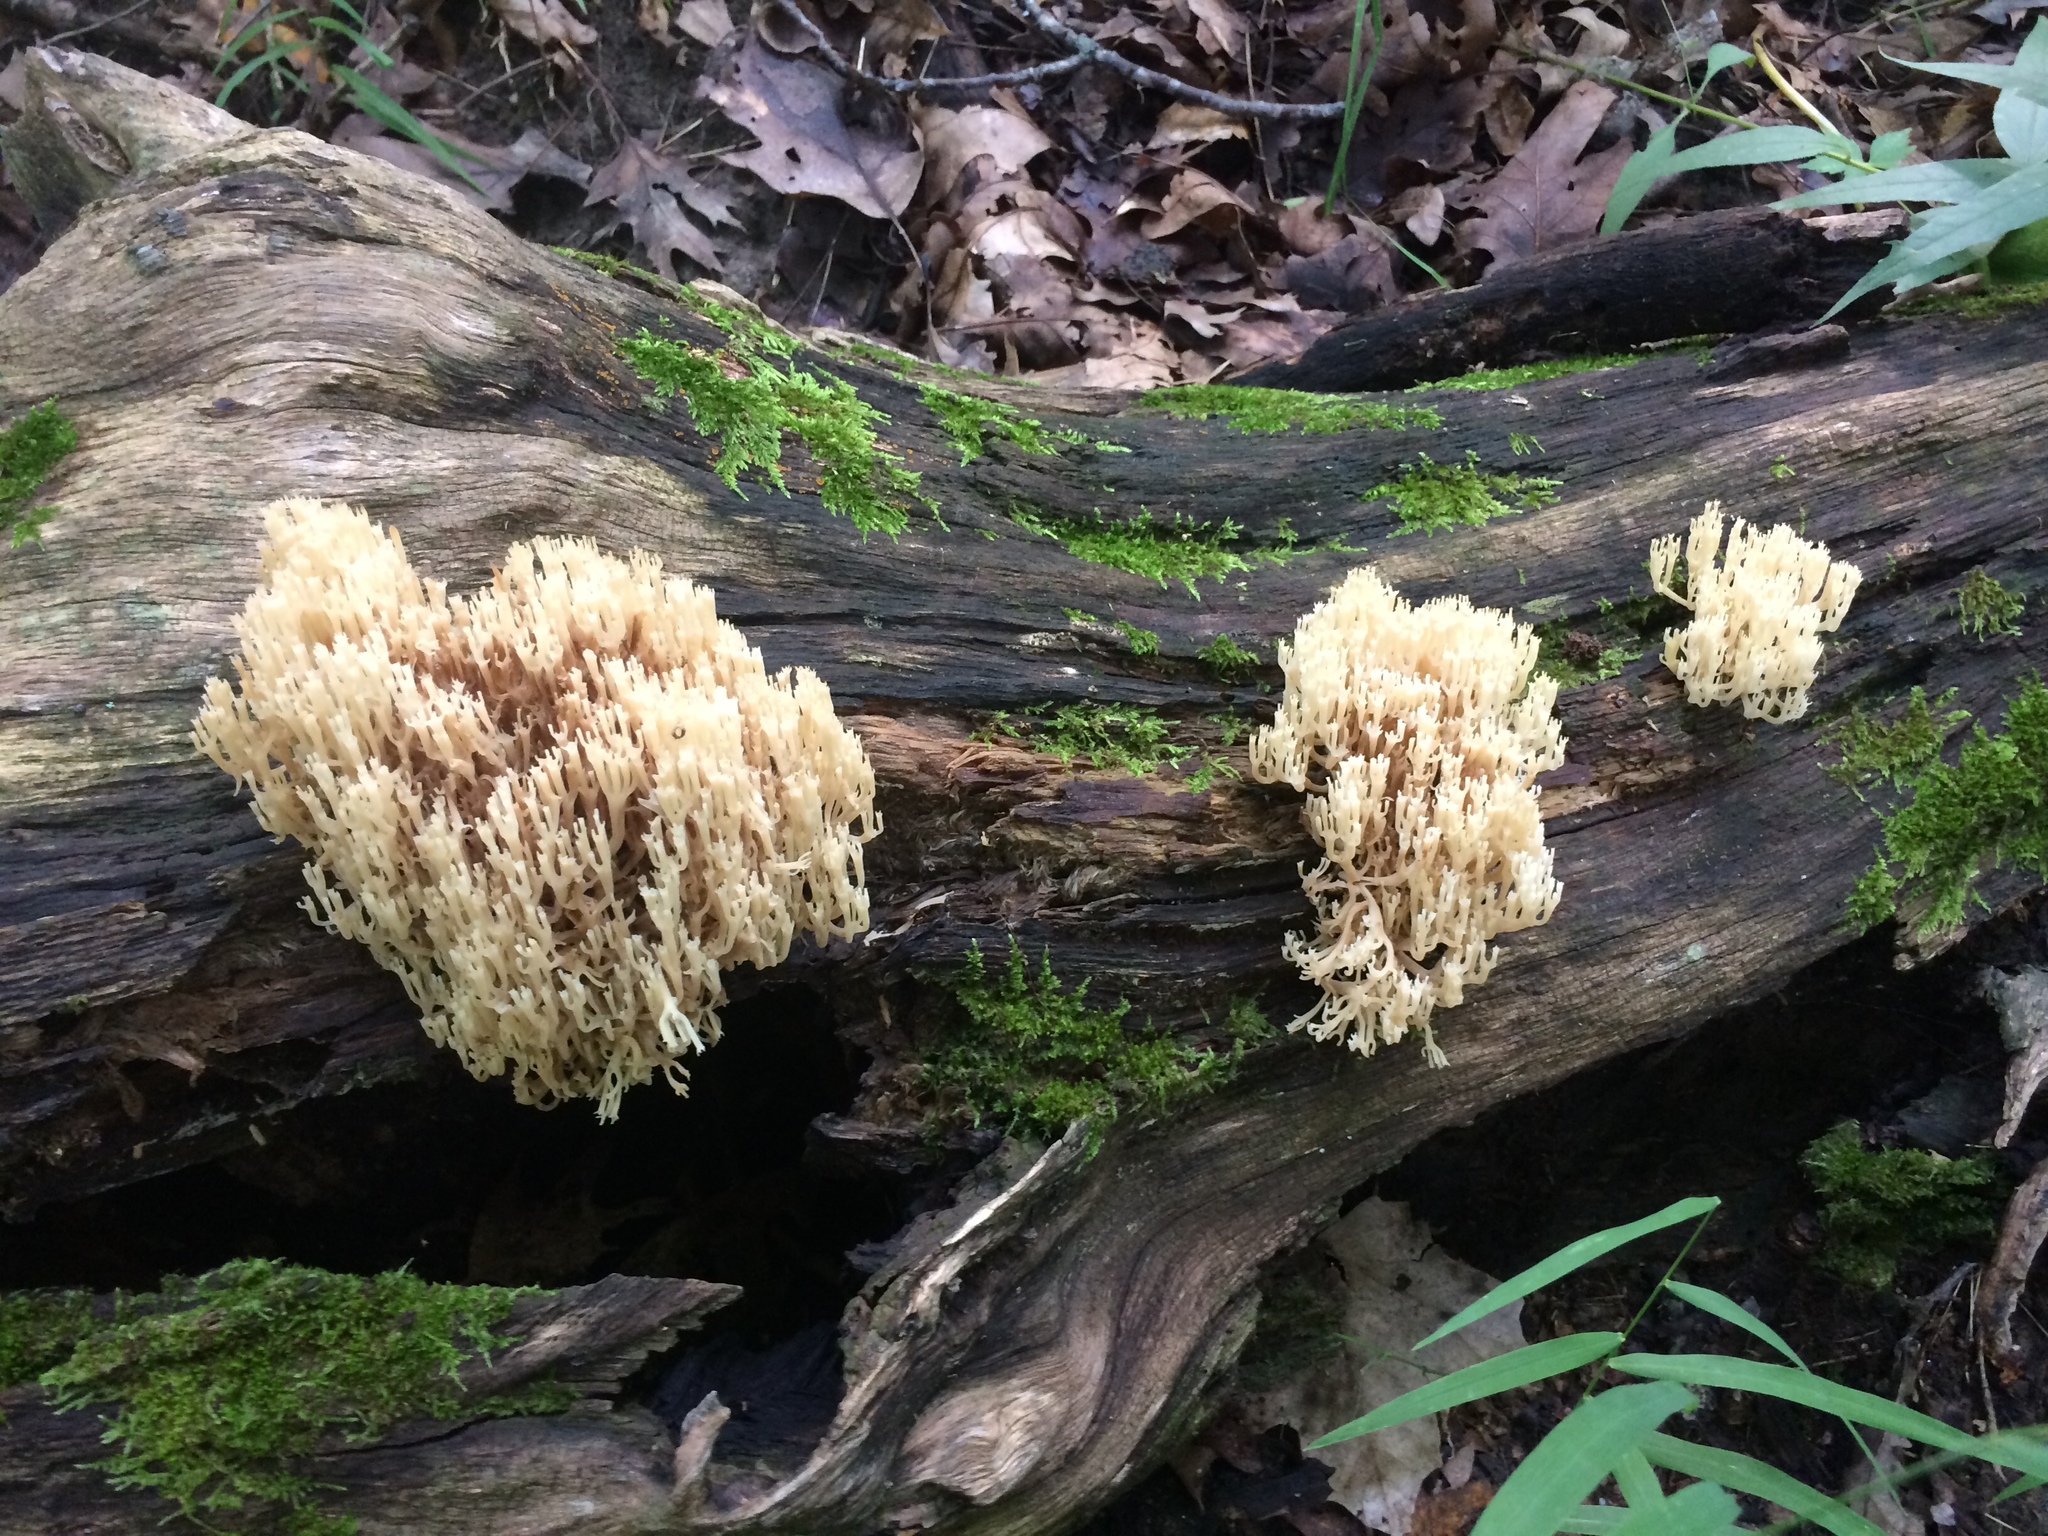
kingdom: Fungi
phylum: Basidiomycota
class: Agaricomycetes
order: Russulales
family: Auriscalpiaceae
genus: Artomyces
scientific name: Artomyces pyxidatus
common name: Crown-tipped coral fungus
